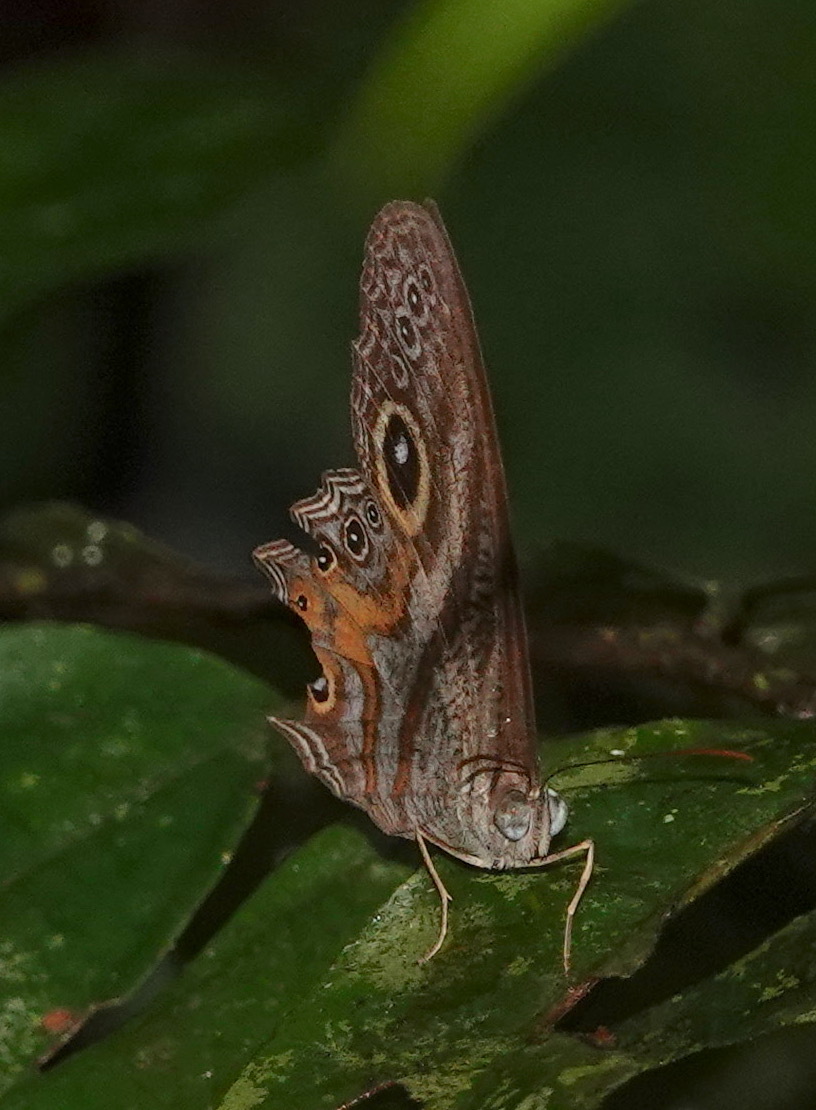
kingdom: Animalia
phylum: Arthropoda
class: Insecta
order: Lepidoptera
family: Nymphalidae
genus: Erites
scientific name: Erites argentina
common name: Eyed cyclops
